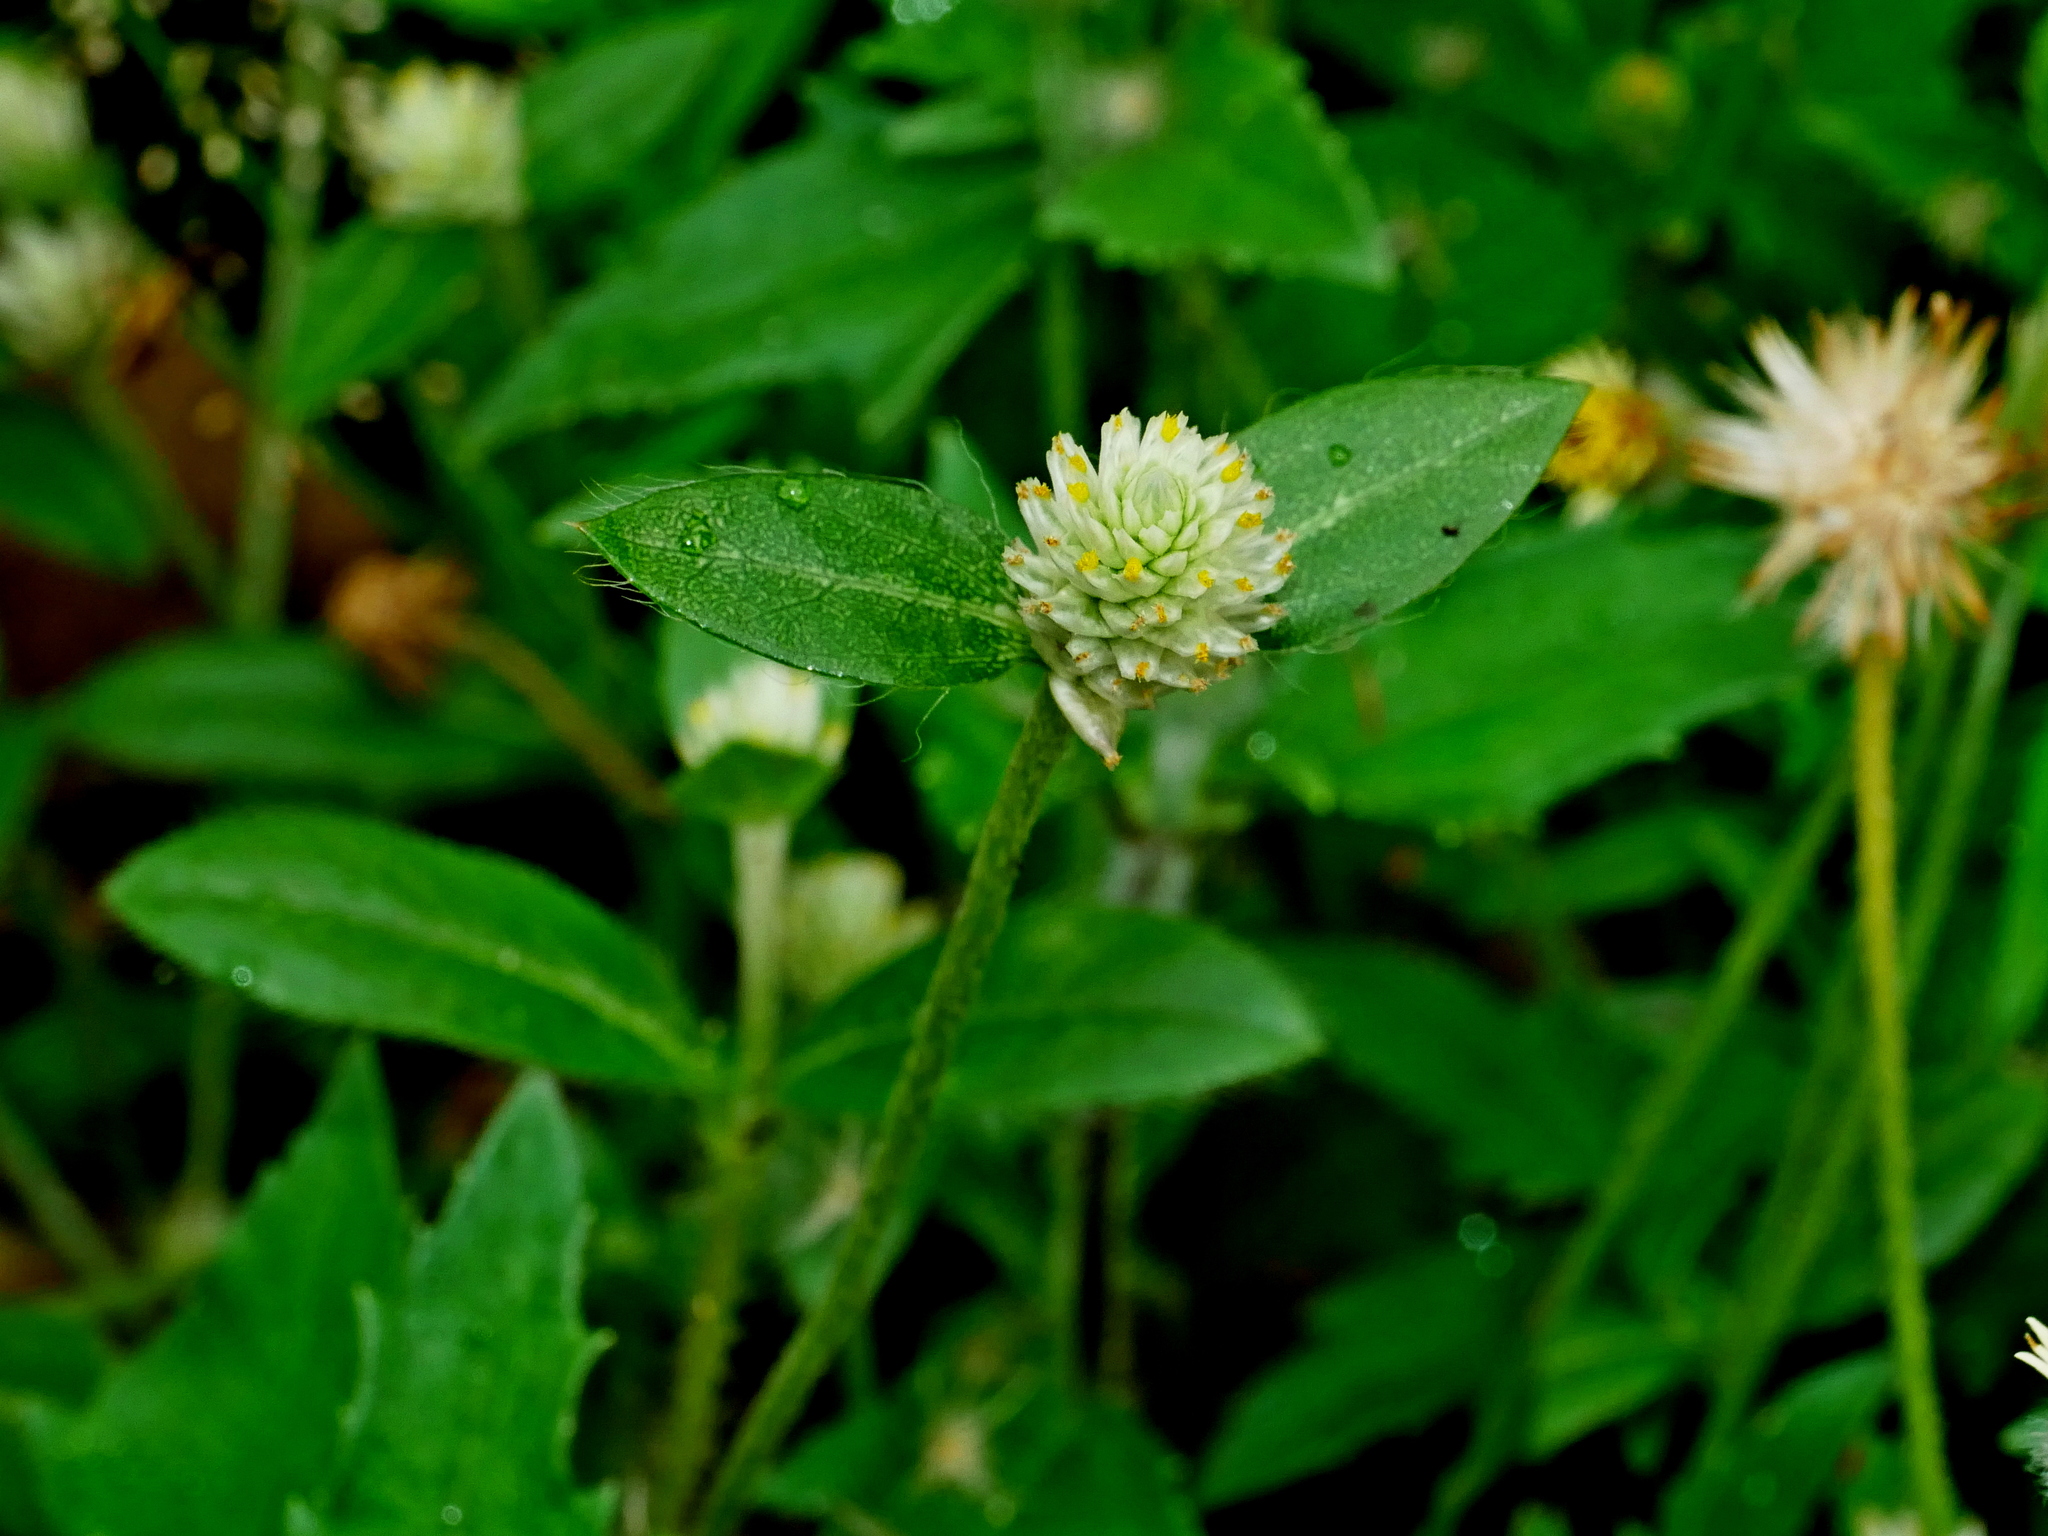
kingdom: Plantae
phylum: Tracheophyta
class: Magnoliopsida
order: Caryophyllales
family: Amaranthaceae
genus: Gomphrena
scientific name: Gomphrena serrata
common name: Arrasa con todo
